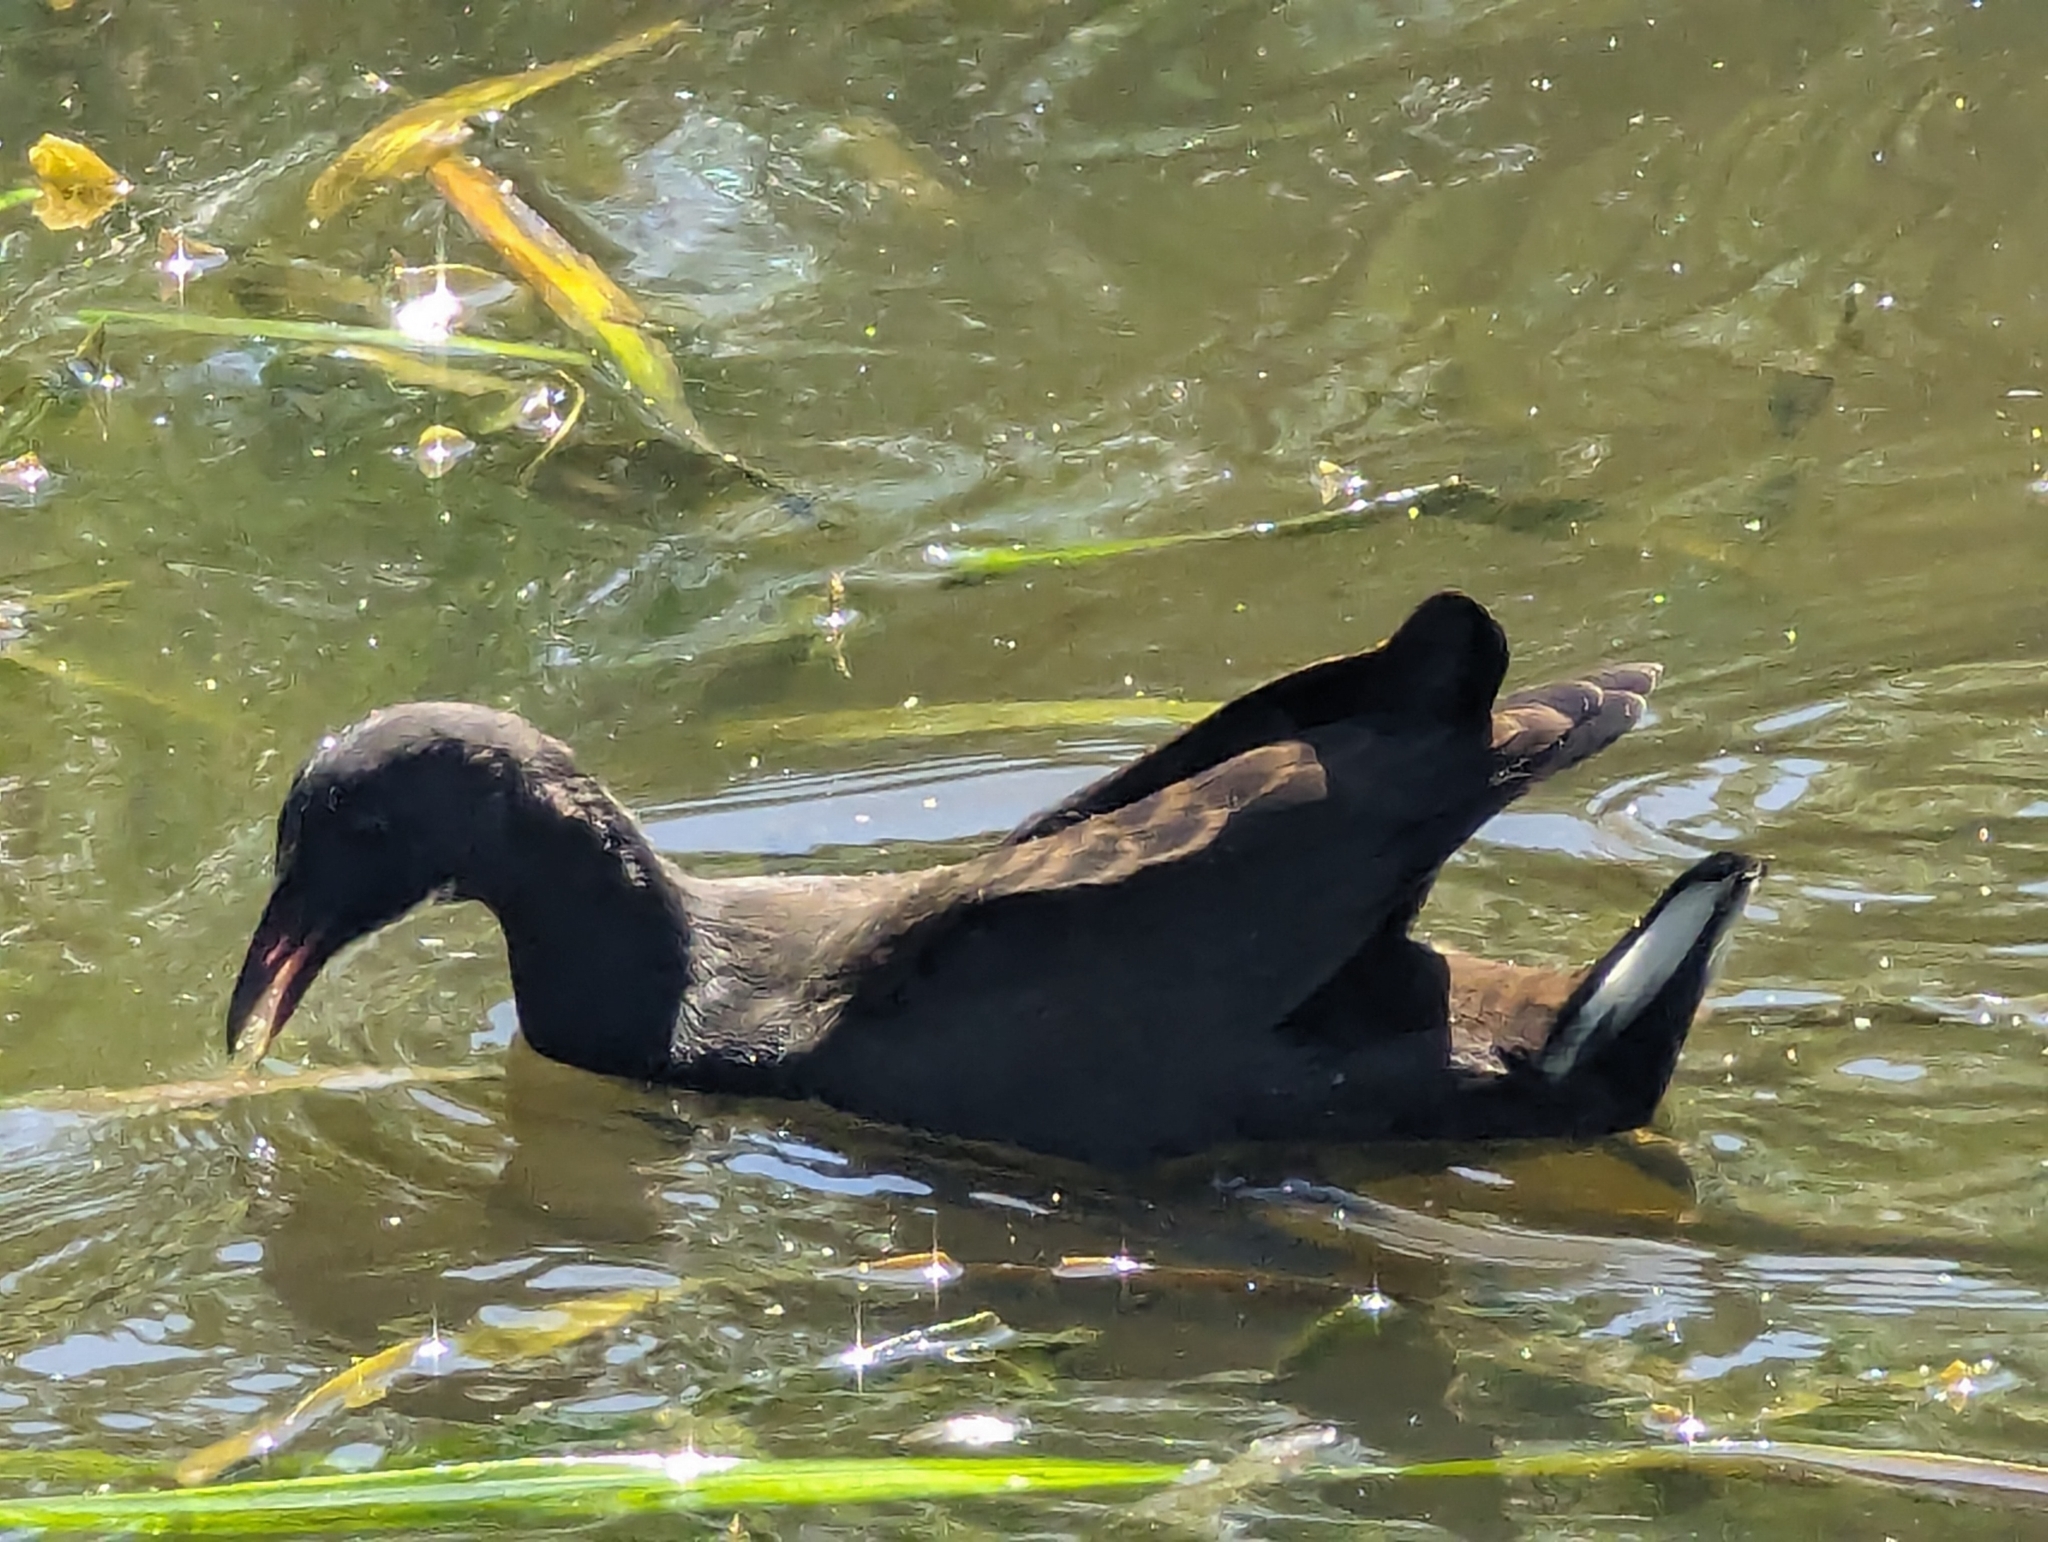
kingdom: Animalia
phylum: Chordata
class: Aves
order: Gruiformes
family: Rallidae
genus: Gallinula
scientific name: Gallinula tenebrosa
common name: Dusky moorhen
